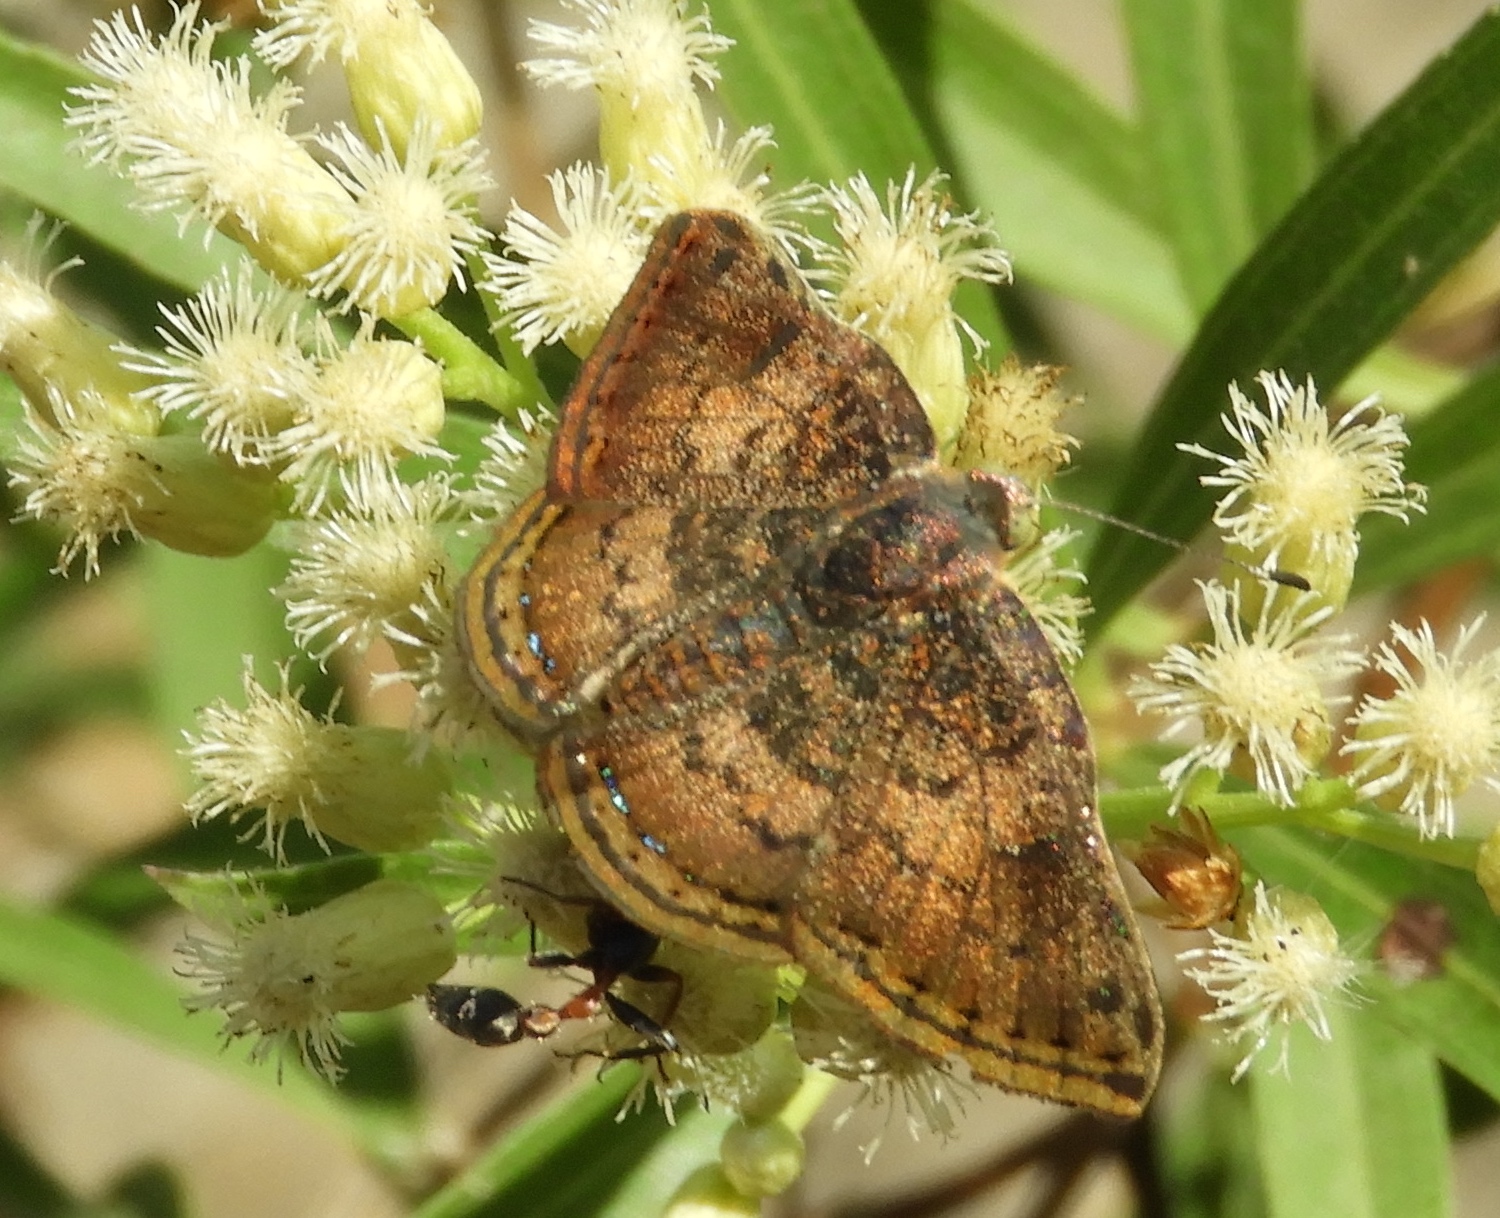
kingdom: Animalia
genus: Caria
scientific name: Caria ino
